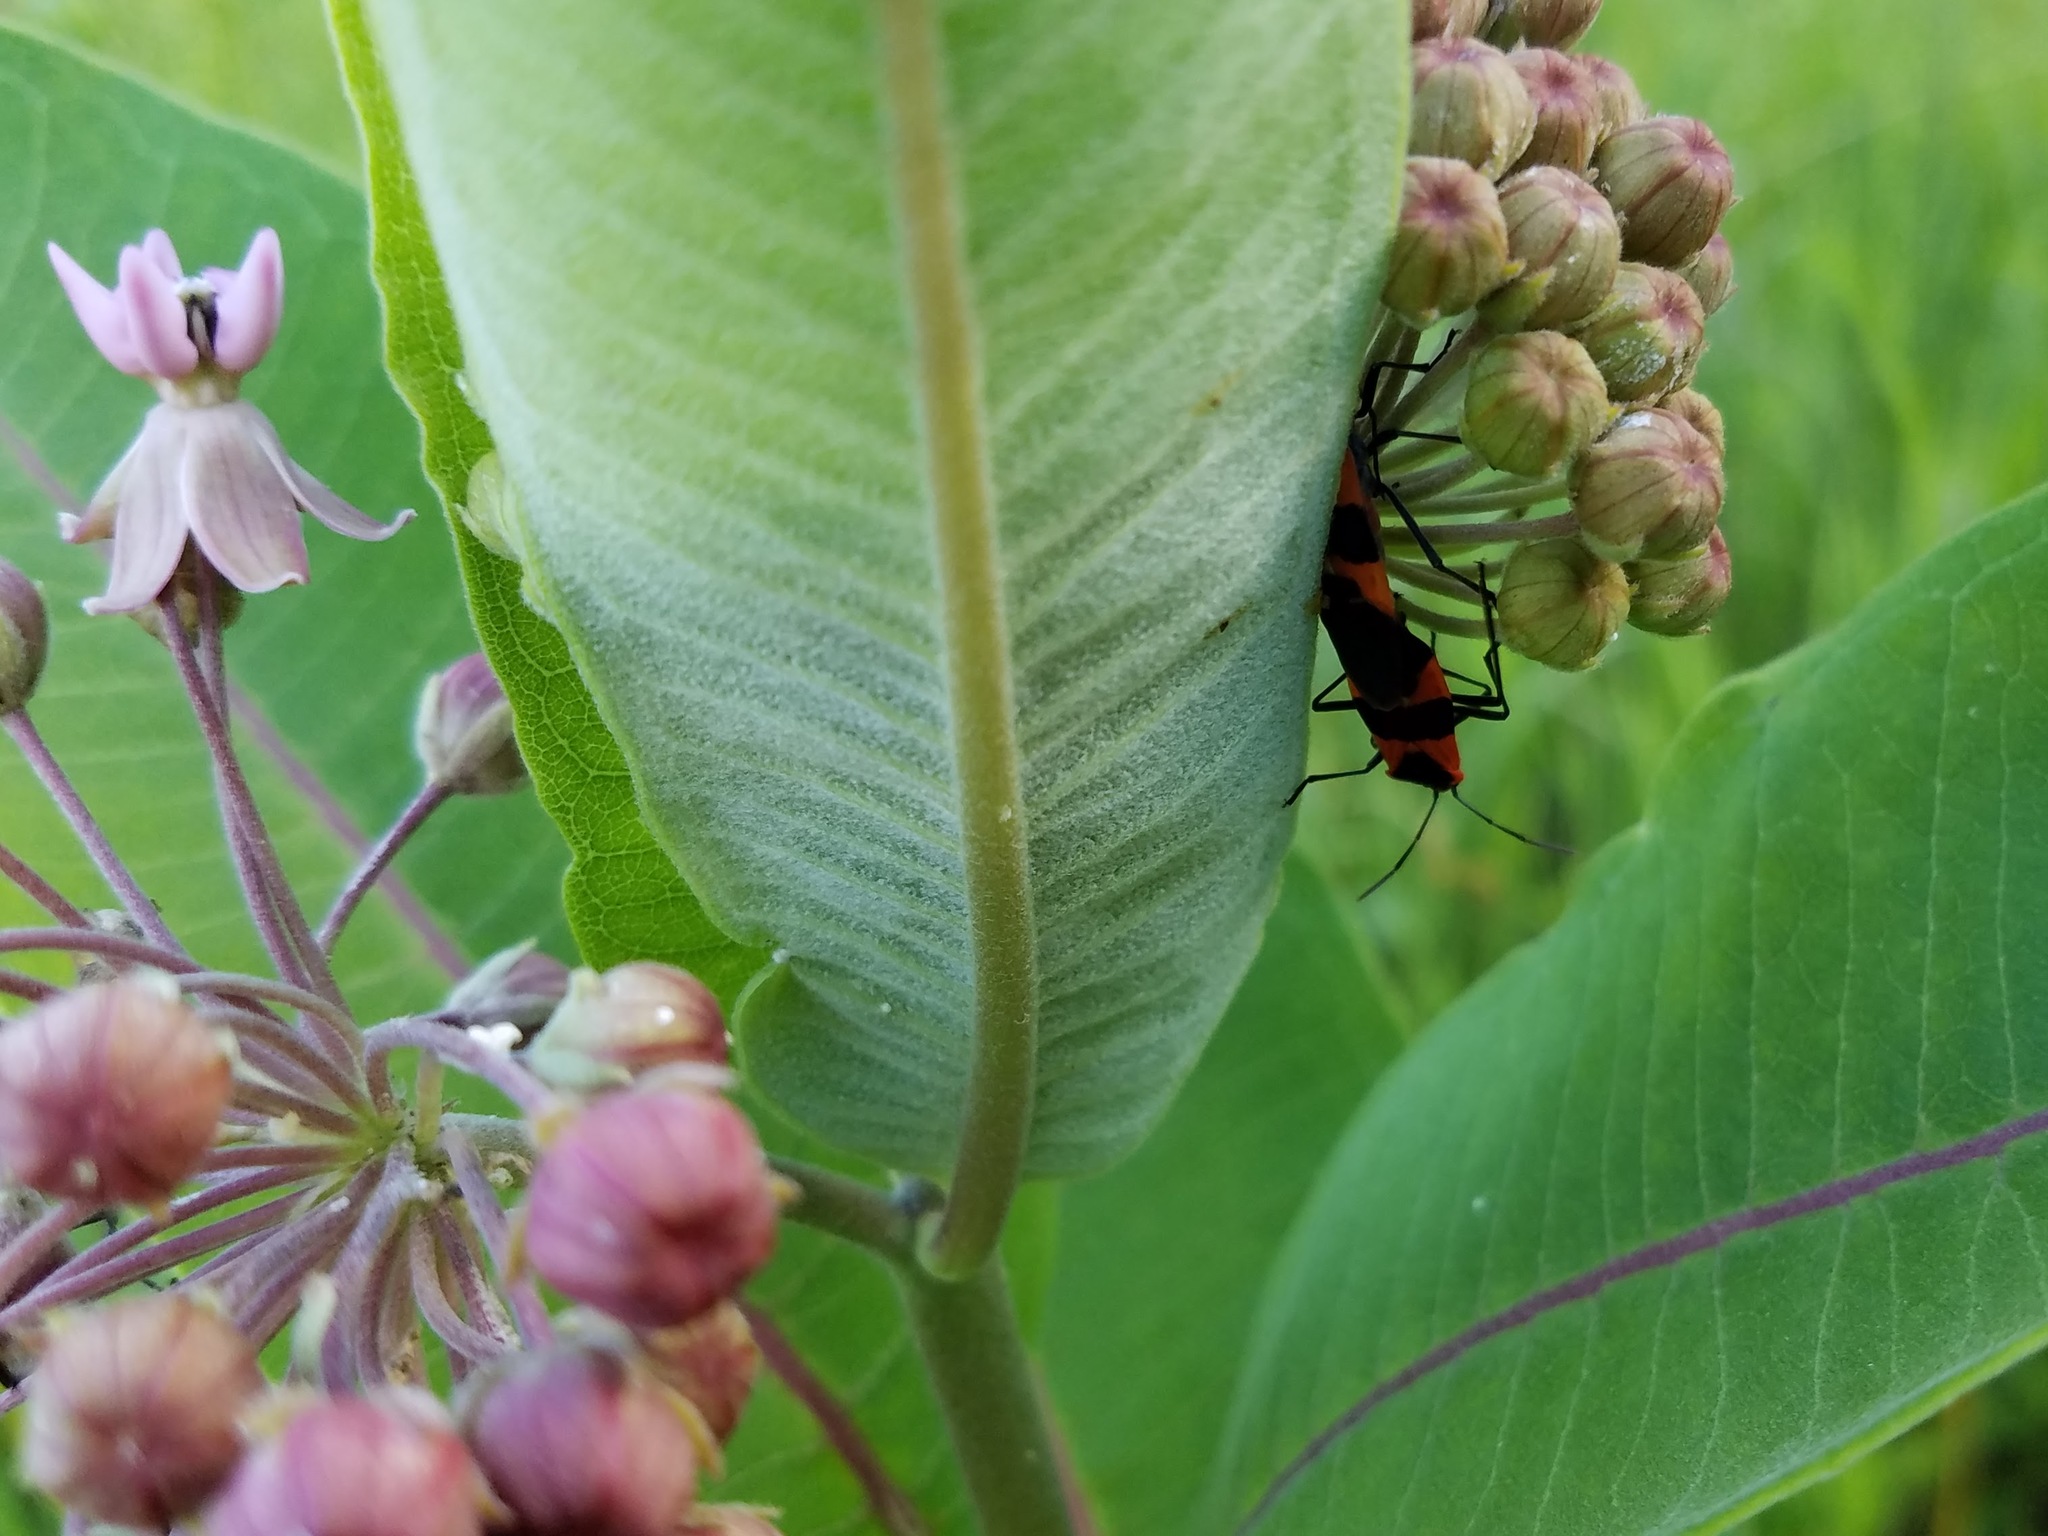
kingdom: Animalia
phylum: Arthropoda
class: Insecta
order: Hemiptera
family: Lygaeidae
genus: Oncopeltus
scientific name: Oncopeltus fasciatus
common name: Large milkweed bug
